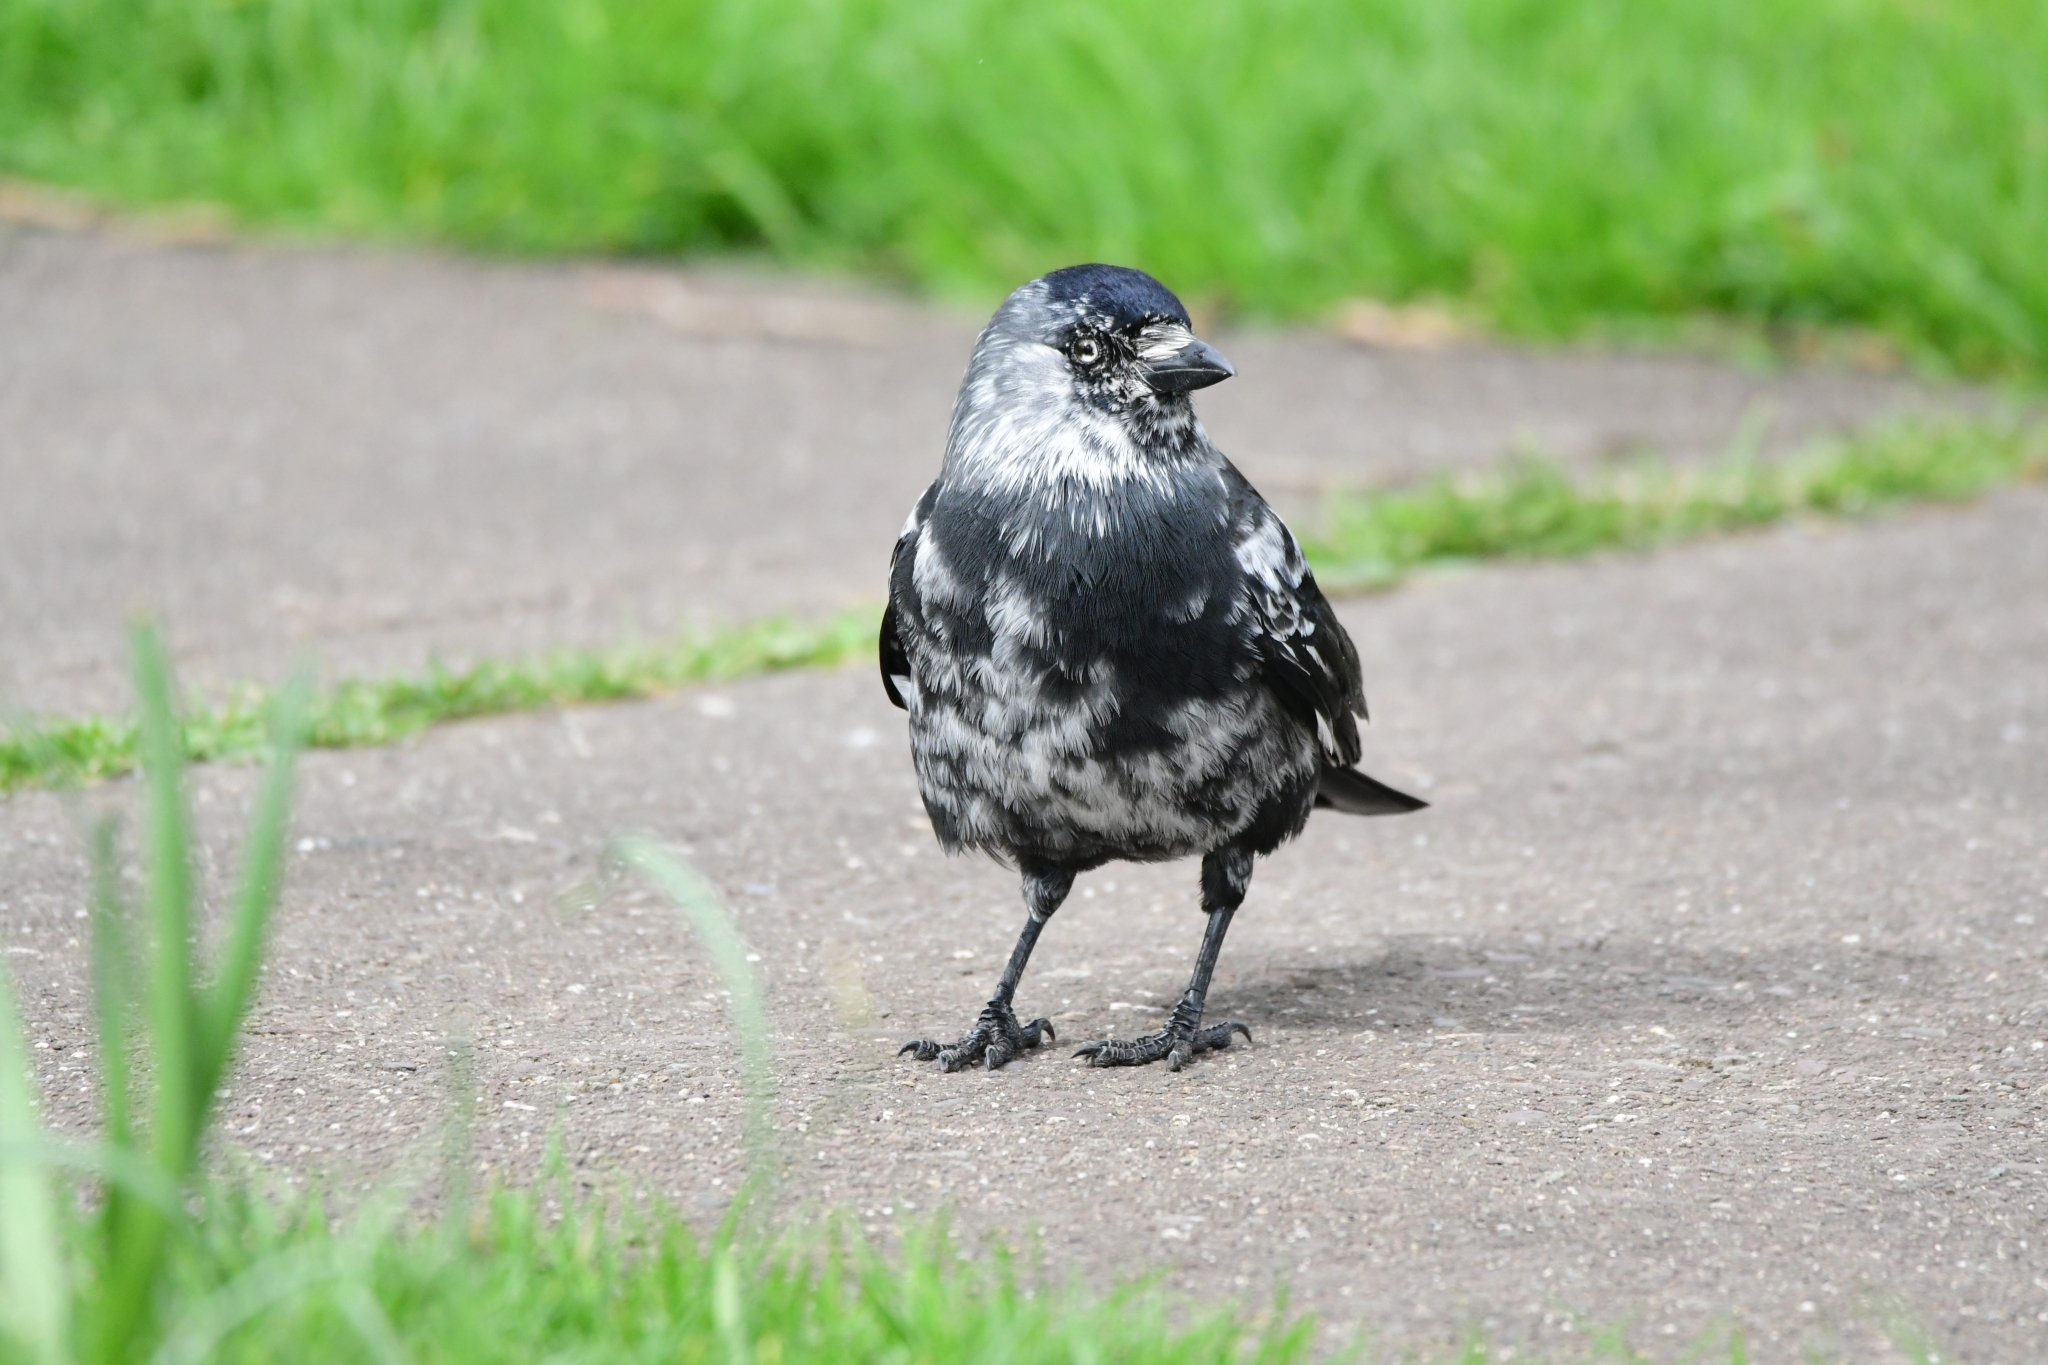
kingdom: Animalia
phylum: Chordata
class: Aves
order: Passeriformes
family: Corvidae
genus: Coloeus
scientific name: Coloeus monedula
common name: Western jackdaw
